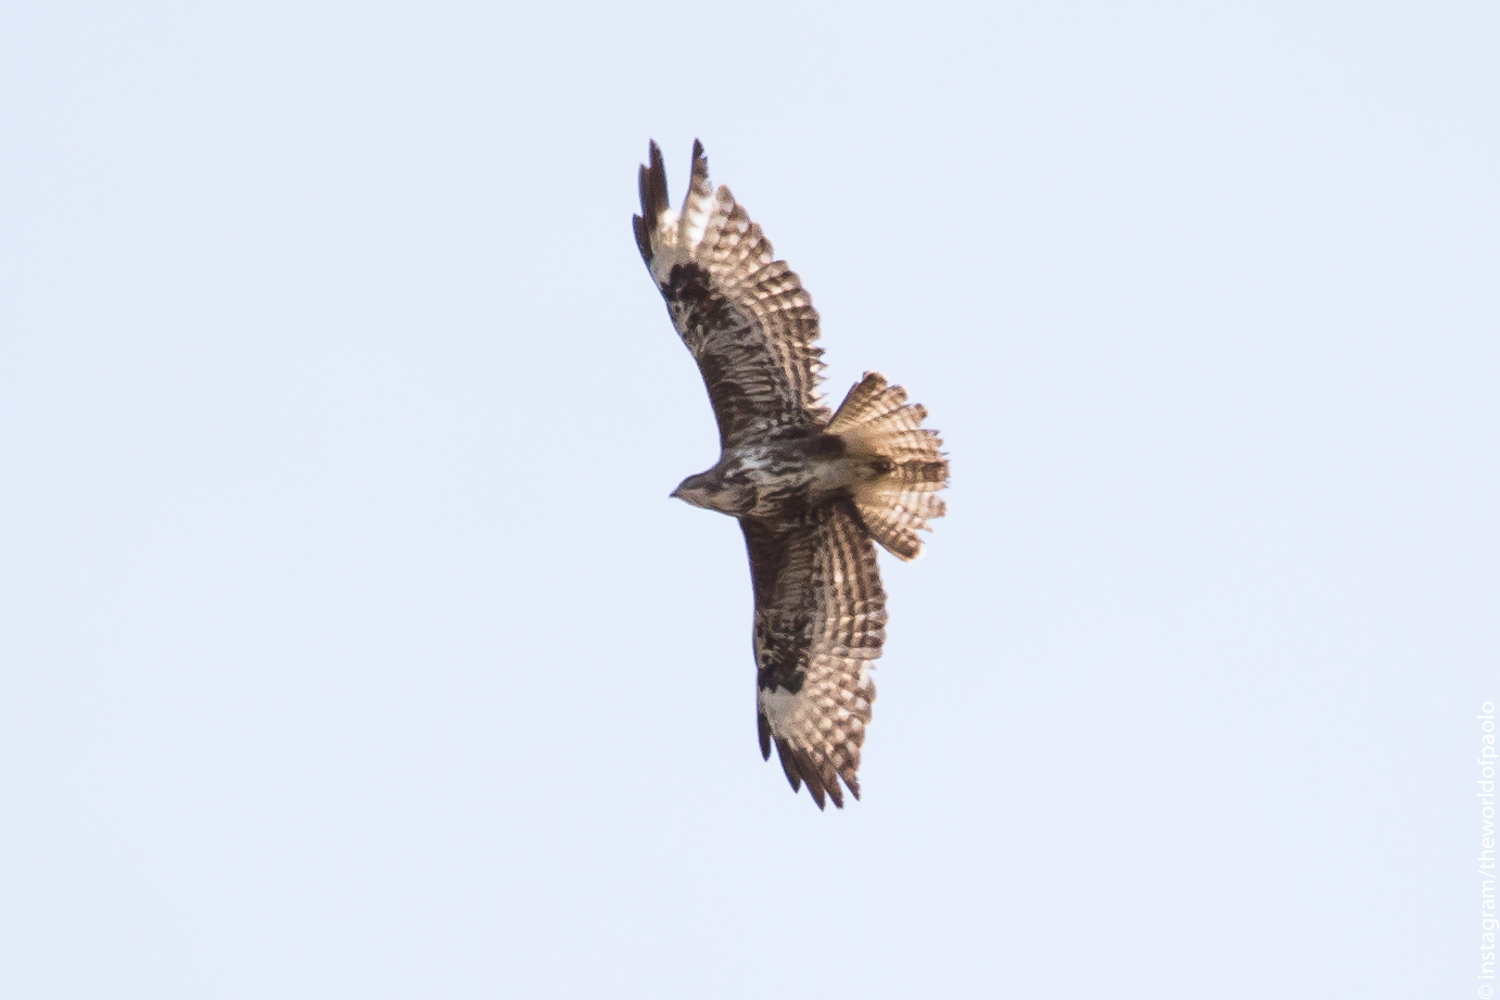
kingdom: Animalia
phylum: Chordata
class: Aves
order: Accipitriformes
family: Accipitridae
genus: Buteo
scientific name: Buteo buteo
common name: Common buzzard
